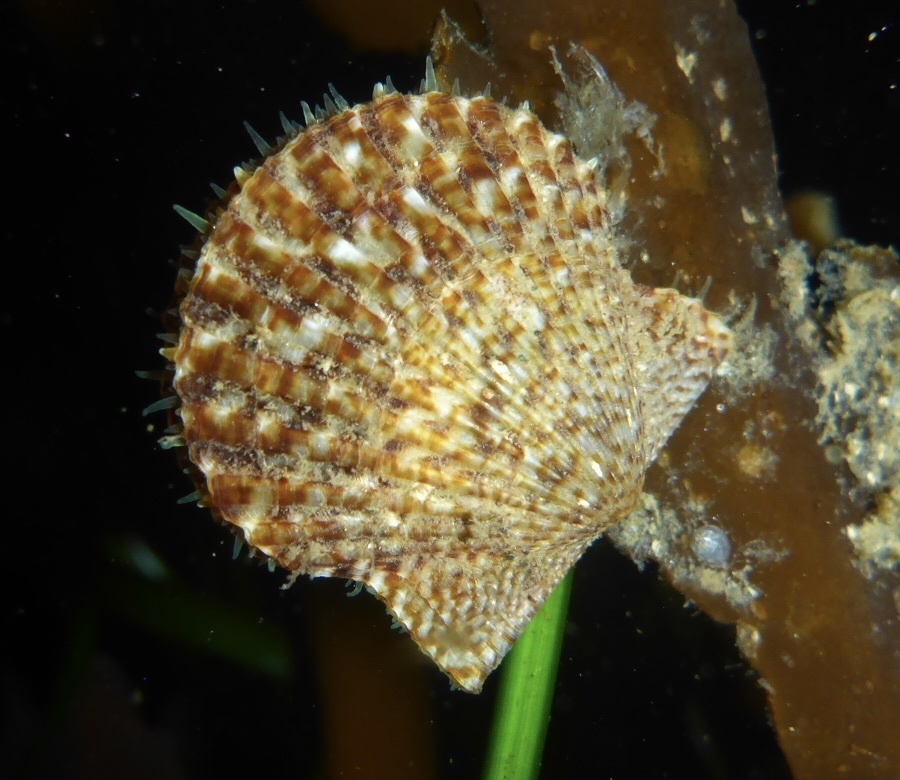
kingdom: Animalia
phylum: Mollusca
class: Bivalvia
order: Pectinida
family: Pectinidae
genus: Leptopecten
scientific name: Leptopecten latiauratus
